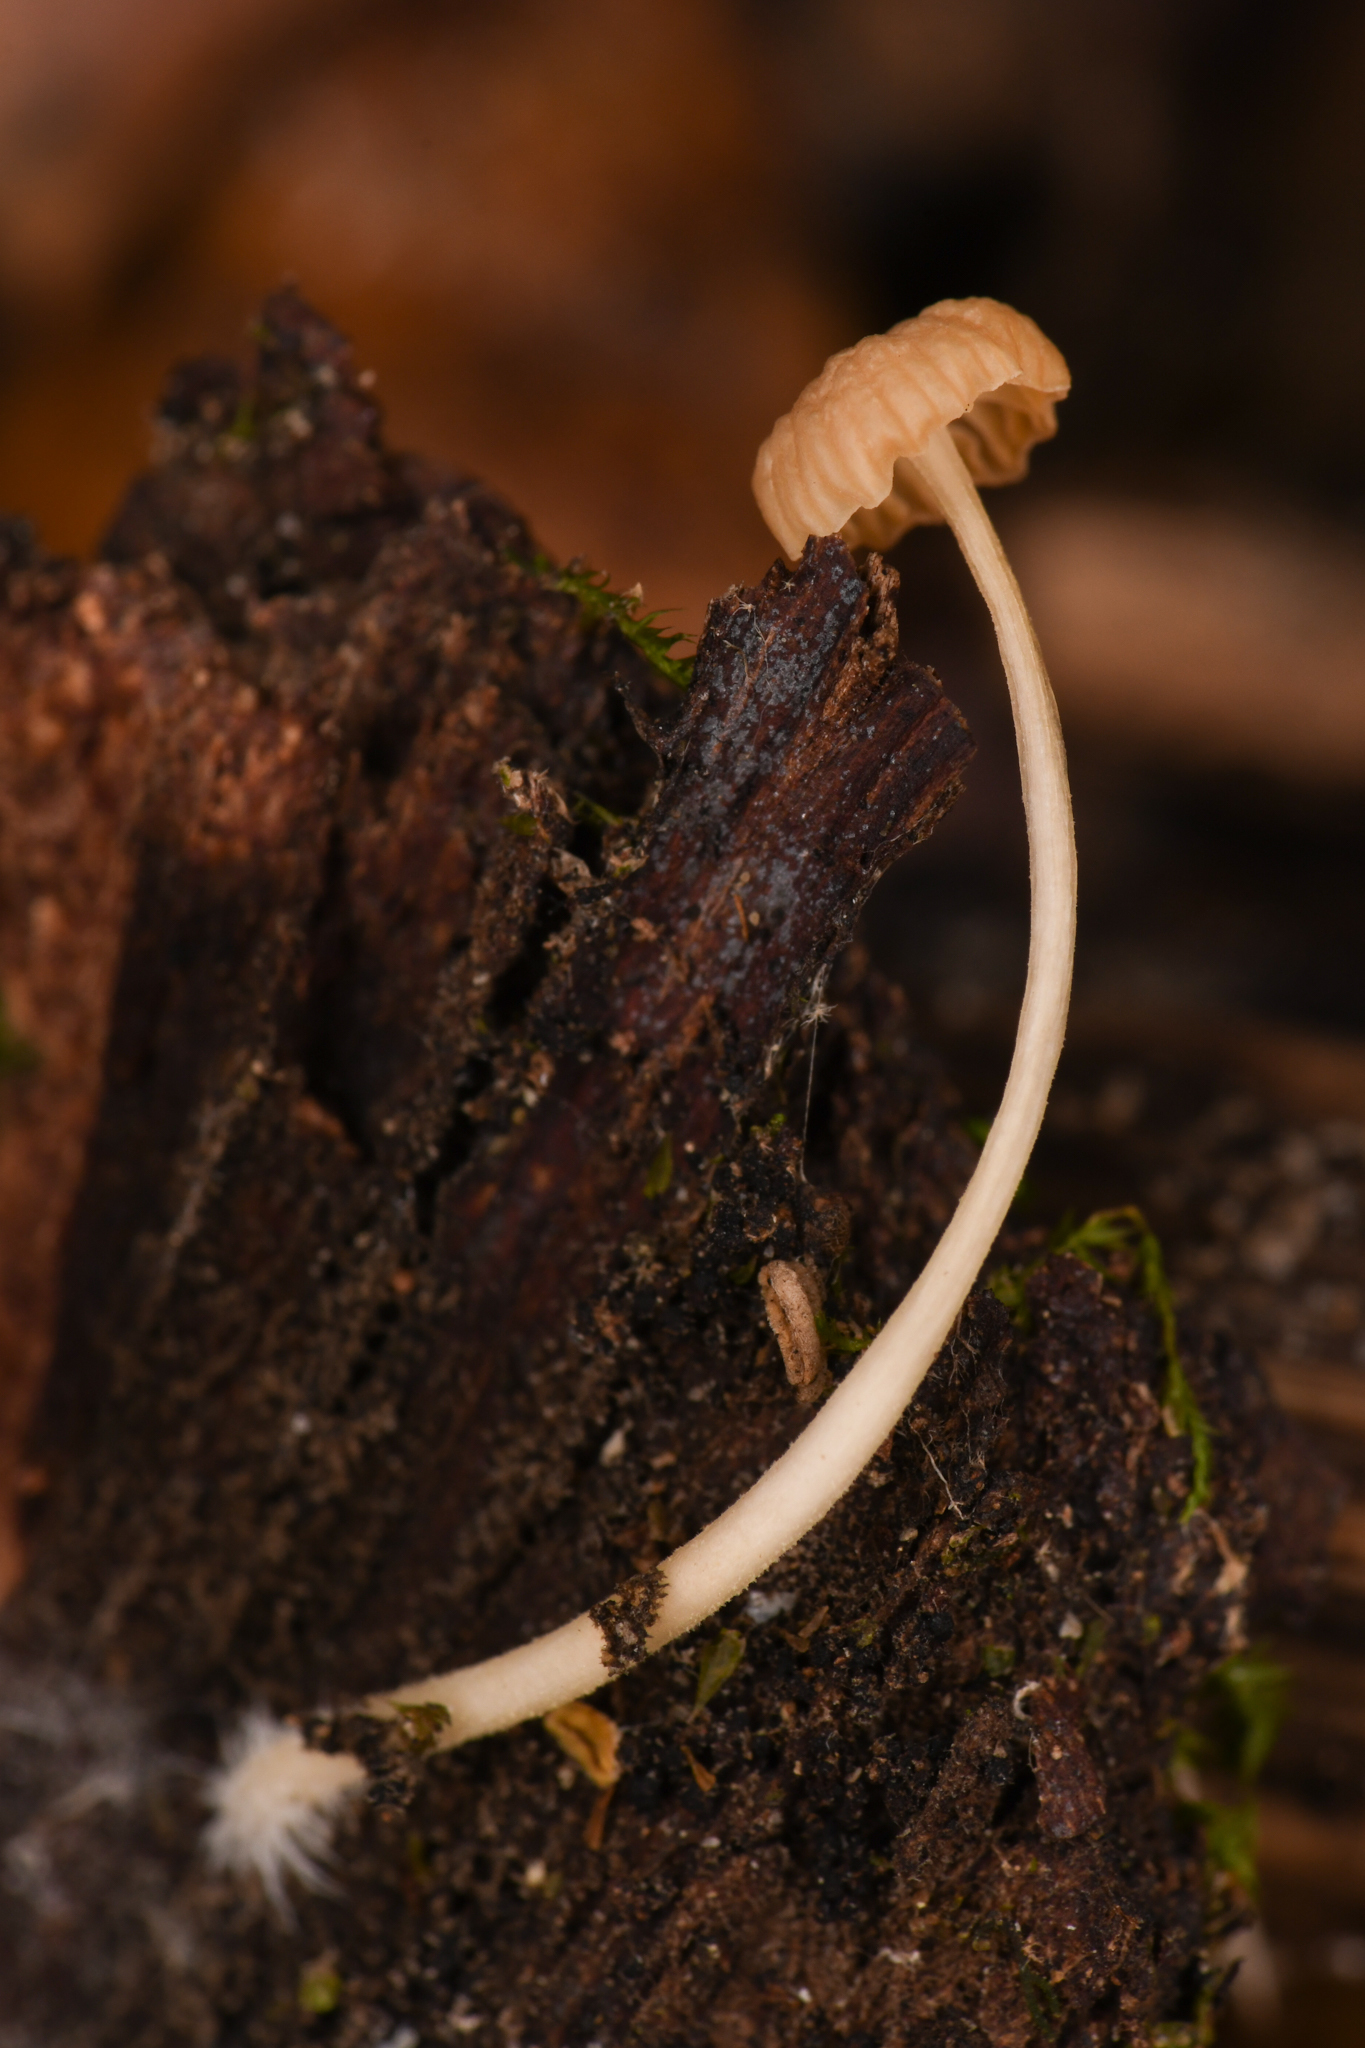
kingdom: Fungi
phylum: Basidiomycota
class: Agaricomycetes
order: Agaricales
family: Porotheleaceae
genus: Phloeomana
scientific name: Phloeomana speirea
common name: Bark bonnet
